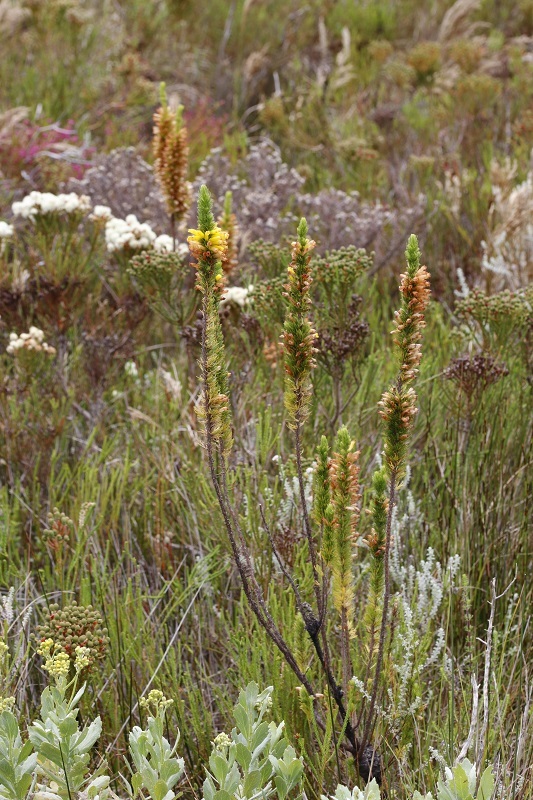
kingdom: Plantae
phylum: Tracheophyta
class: Magnoliopsida
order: Ericales
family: Ericaceae
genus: Erica
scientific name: Erica patersonia
